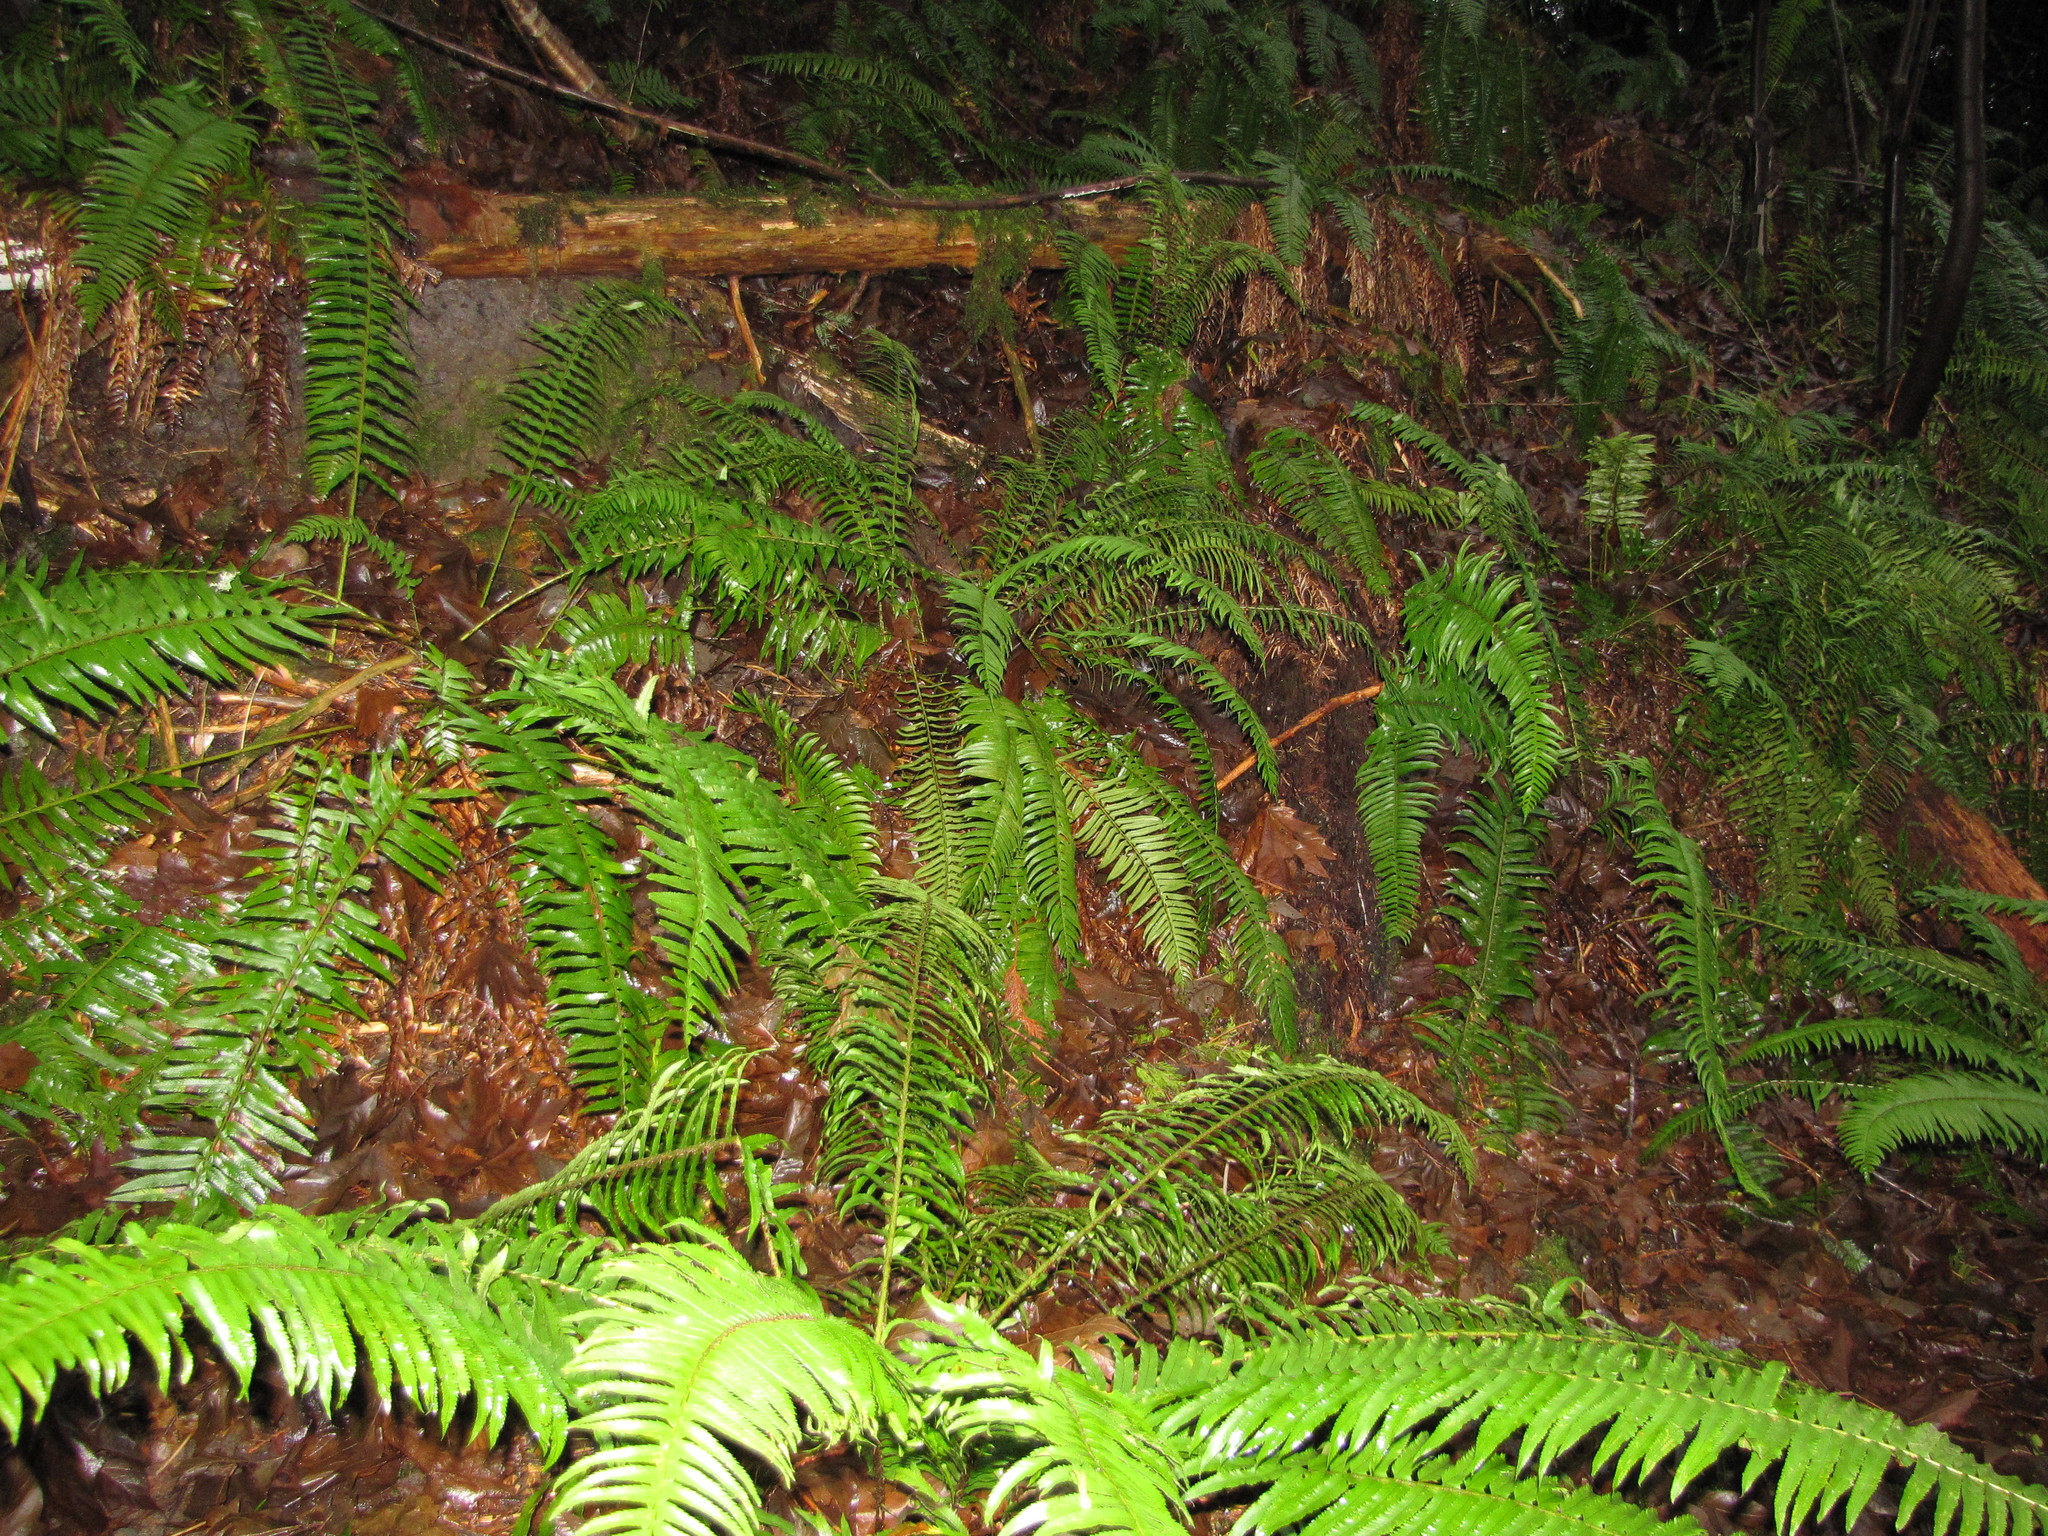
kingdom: Plantae
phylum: Tracheophyta
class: Polypodiopsida
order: Polypodiales
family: Dryopteridaceae
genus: Polystichum
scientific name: Polystichum munitum
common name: Western sword-fern
